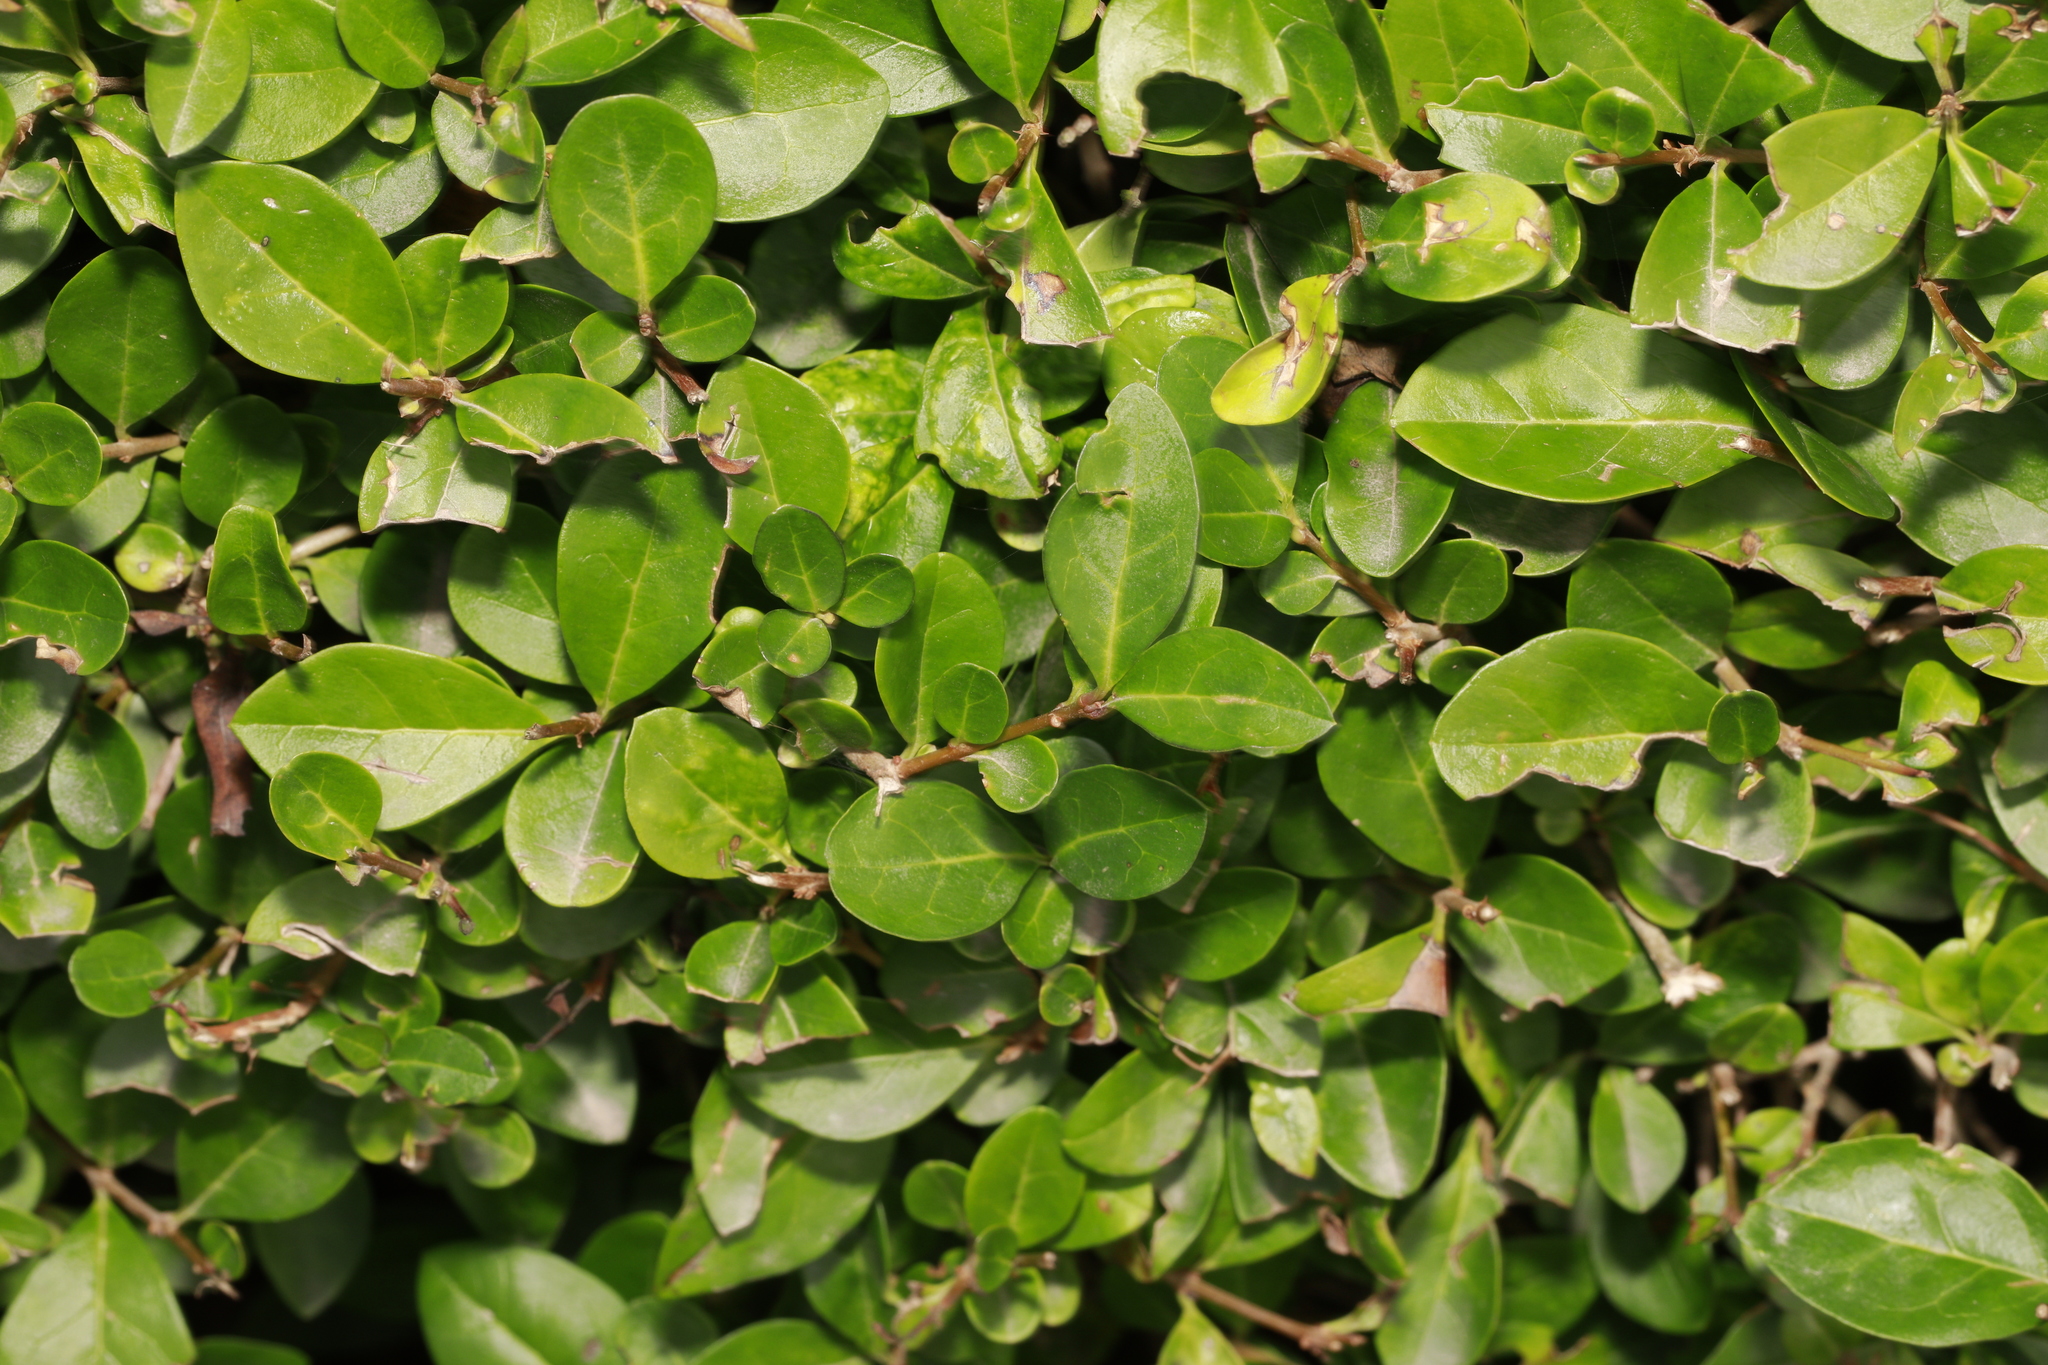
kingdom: Plantae
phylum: Tracheophyta
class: Magnoliopsida
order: Lamiales
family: Oleaceae
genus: Ligustrum
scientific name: Ligustrum ovalifolium
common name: California privet
